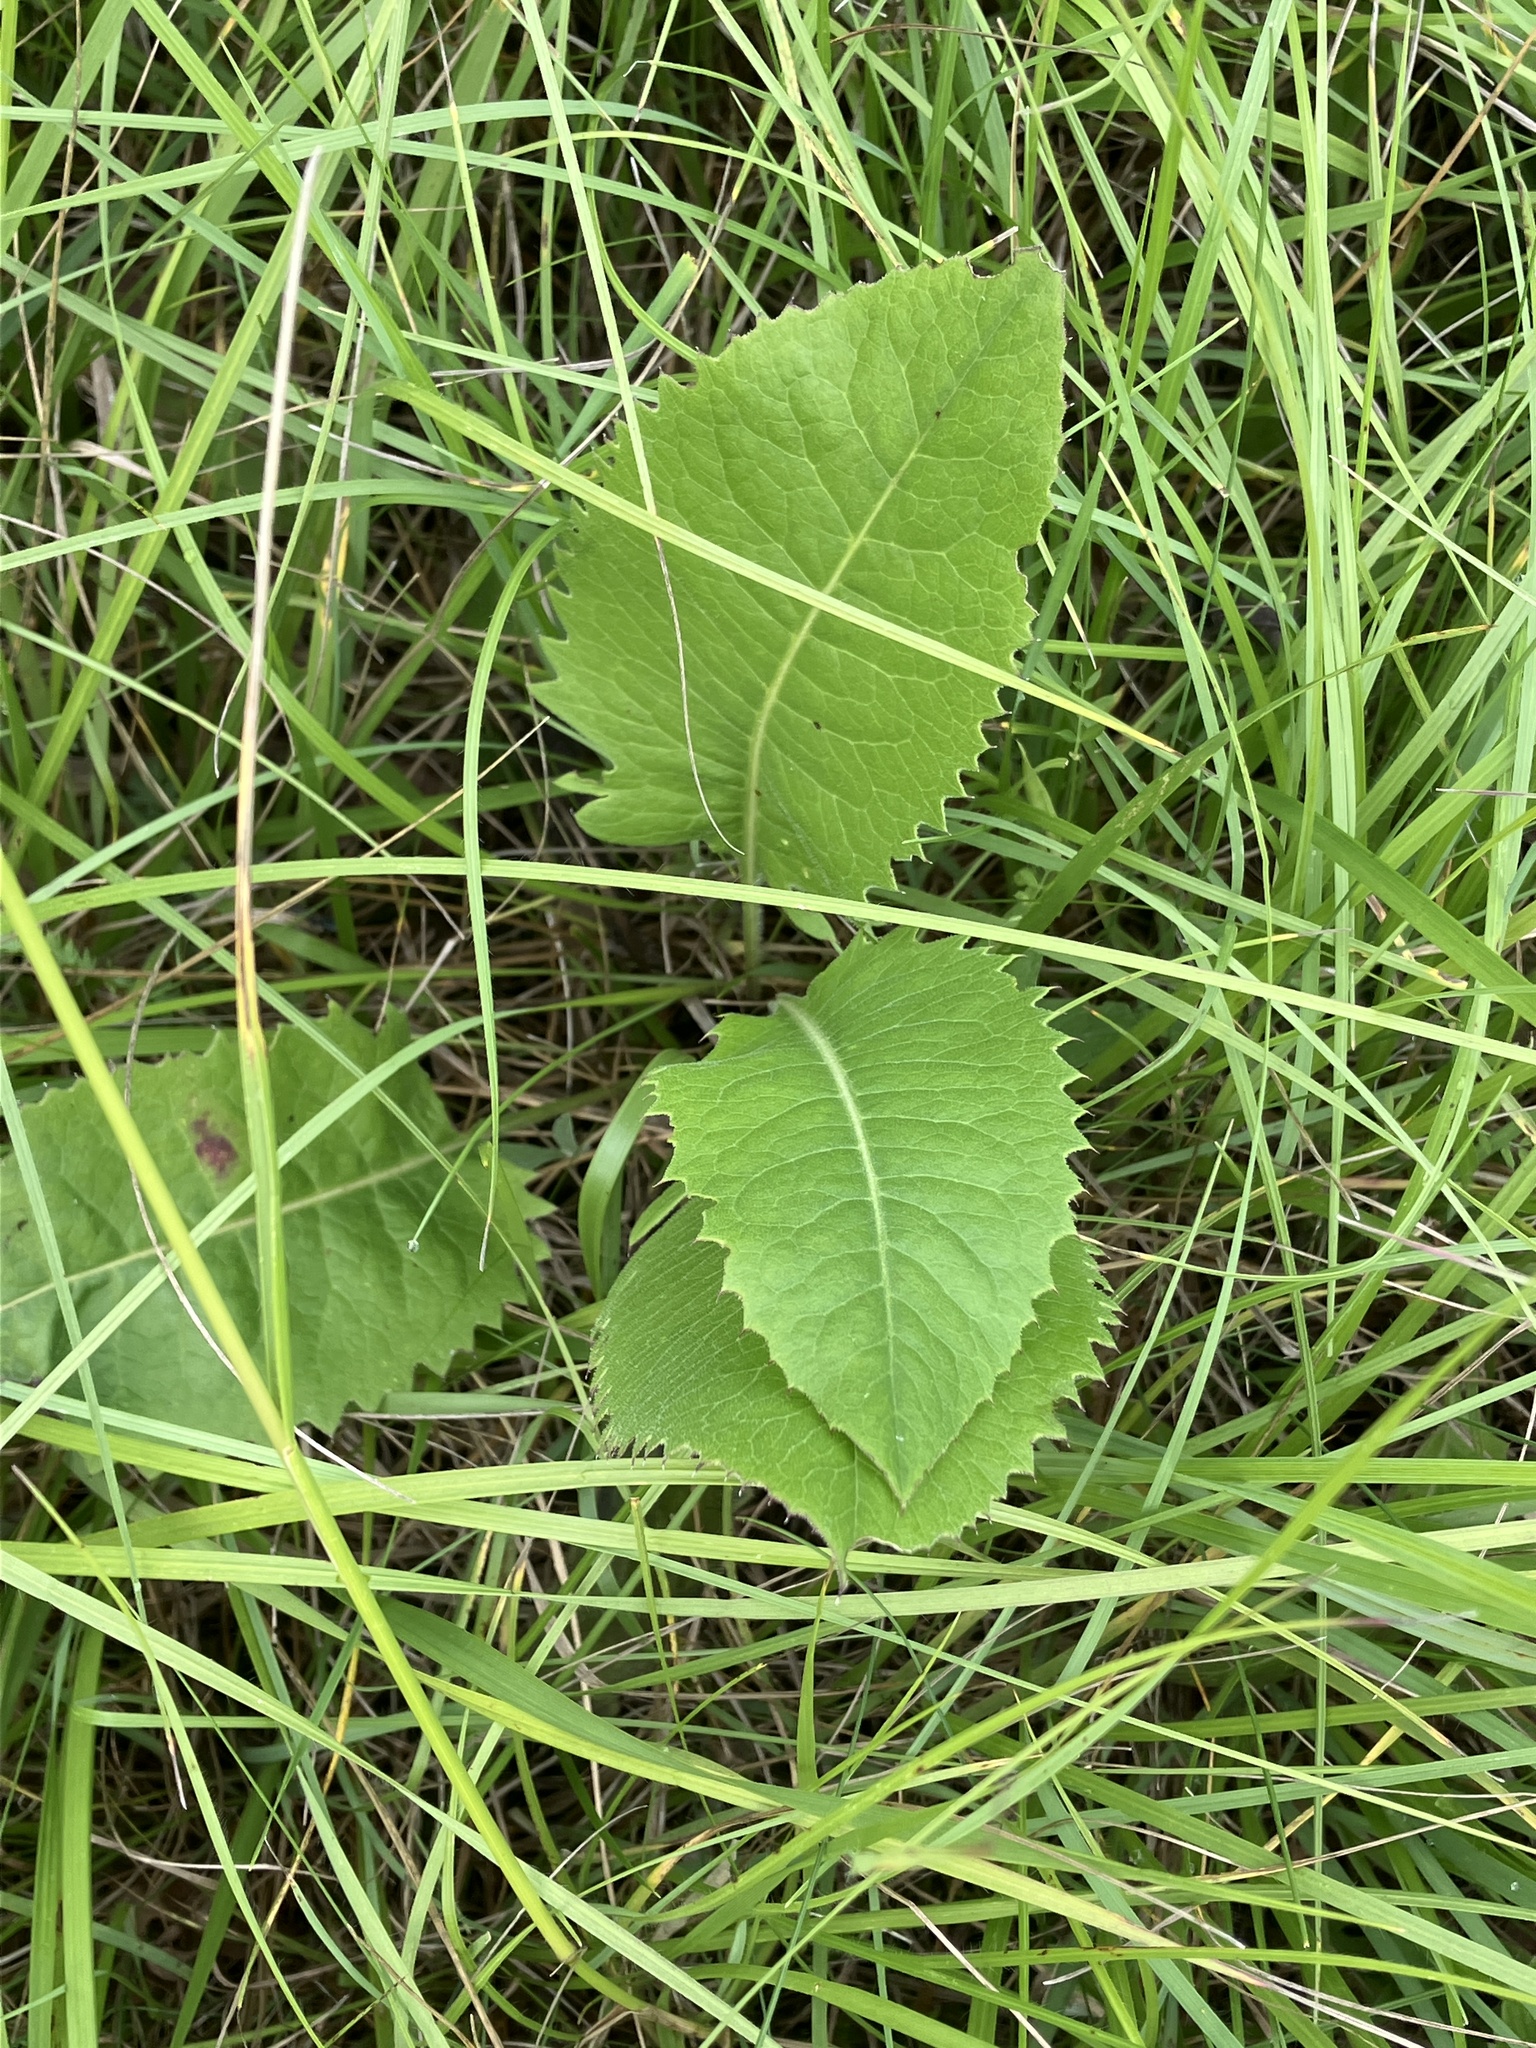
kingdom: Plantae
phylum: Tracheophyta
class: Magnoliopsida
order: Asterales
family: Asteraceae
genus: Klasea
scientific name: Klasea lycopifolia
